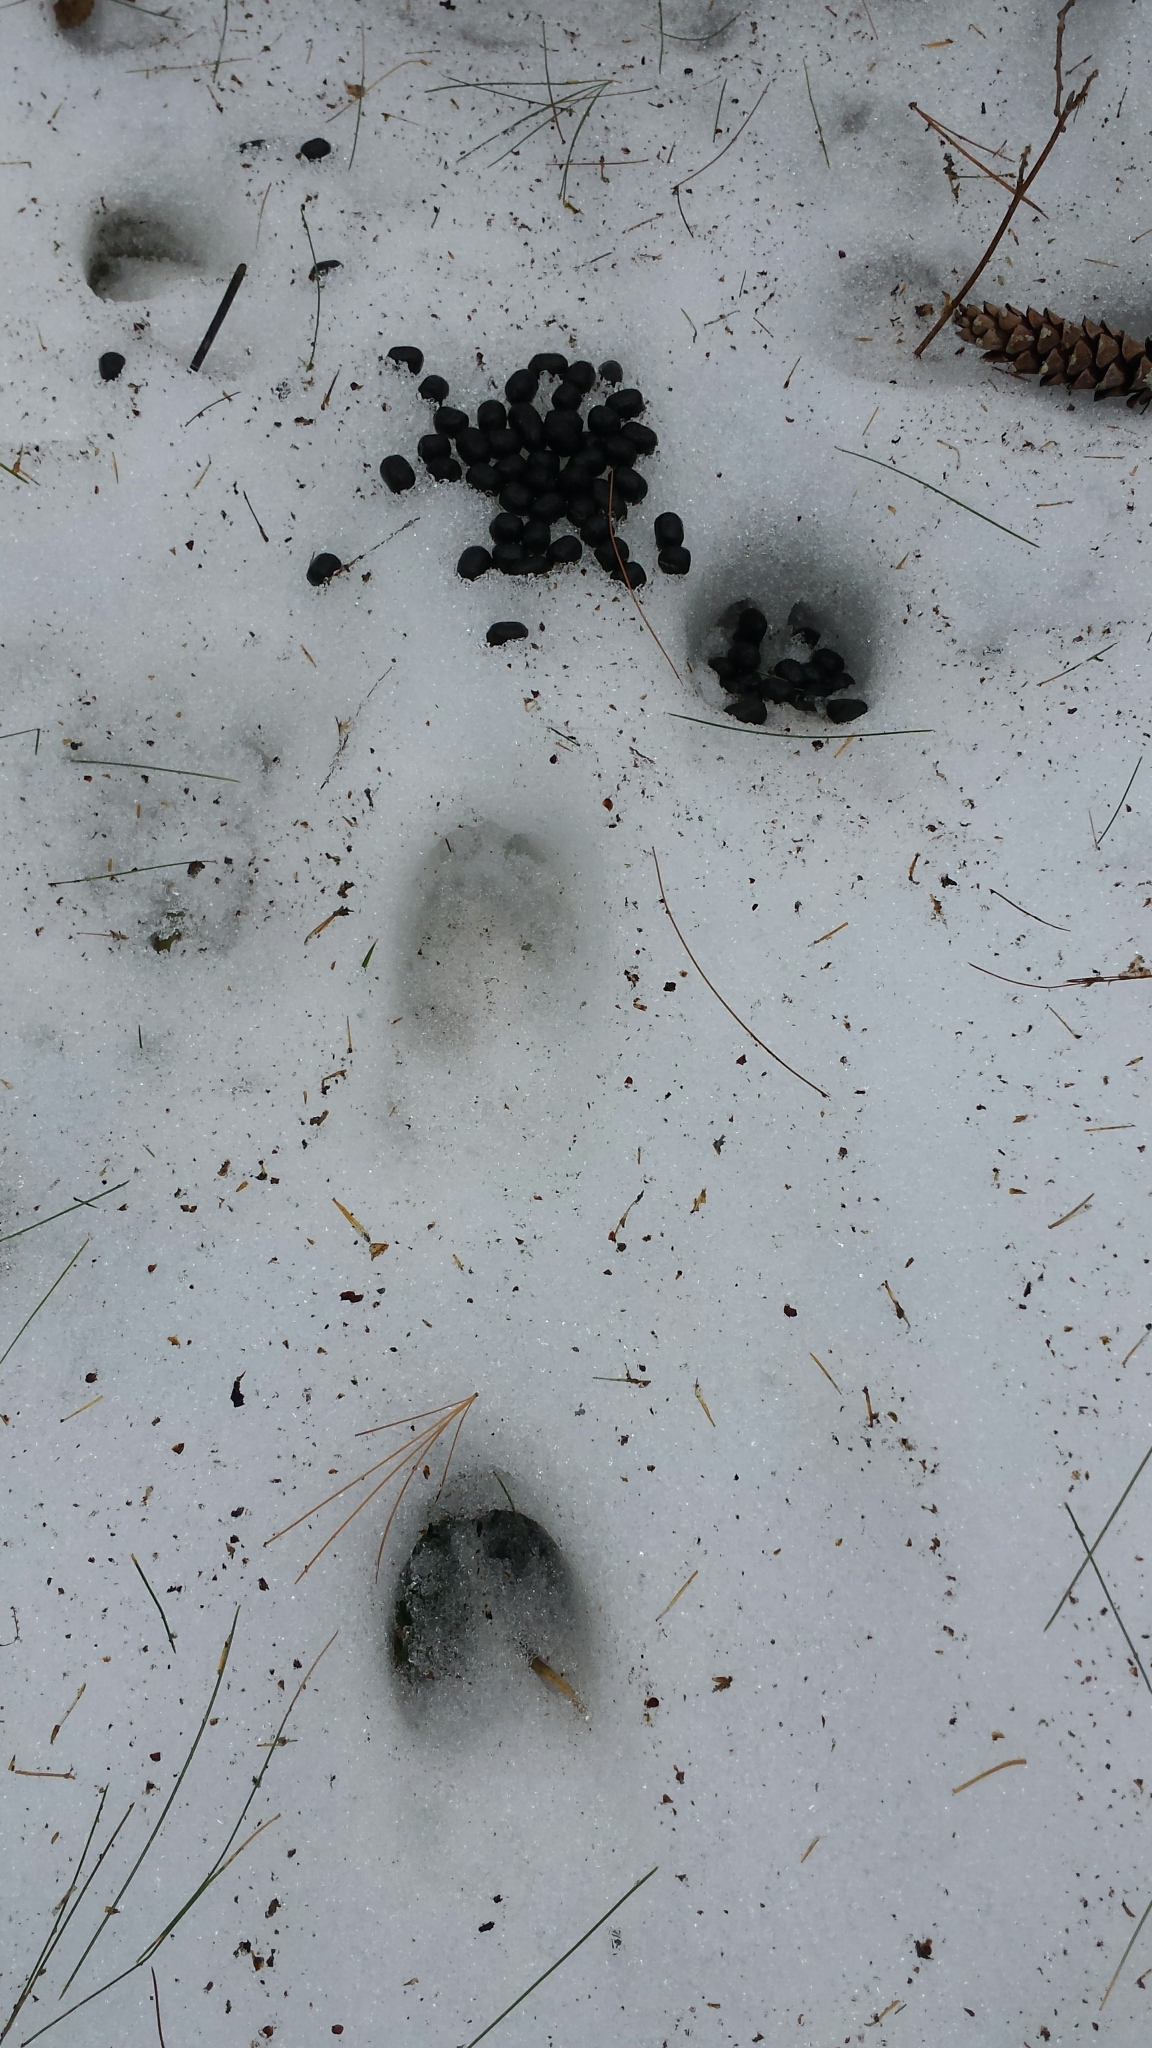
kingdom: Animalia
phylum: Chordata
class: Mammalia
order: Artiodactyla
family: Cervidae
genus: Odocoileus
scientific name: Odocoileus virginianus
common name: White-tailed deer
